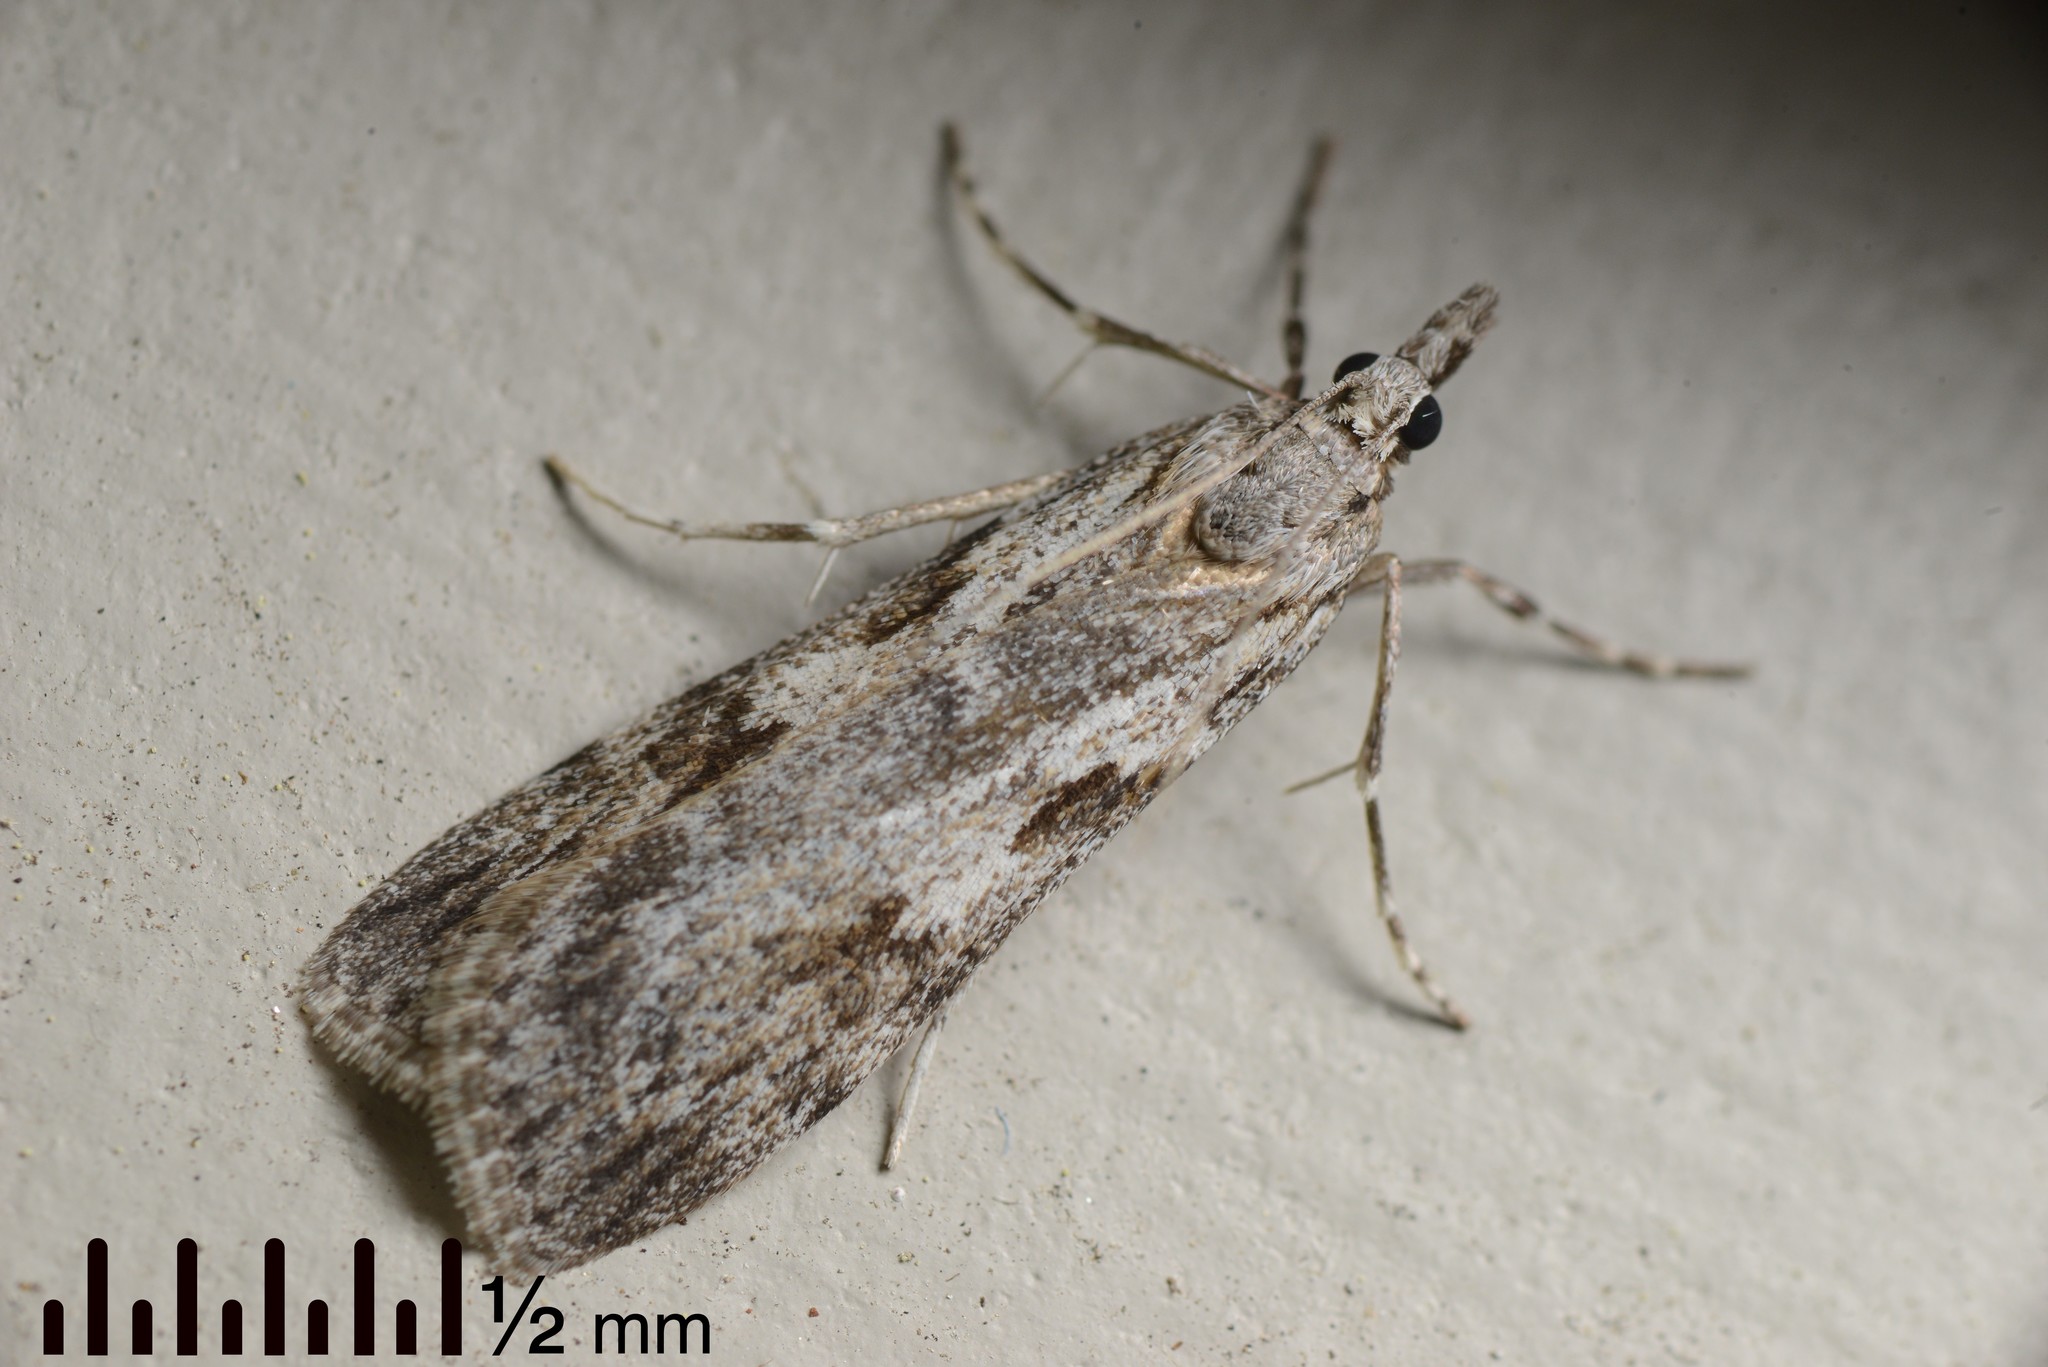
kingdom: Animalia
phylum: Arthropoda
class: Insecta
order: Lepidoptera
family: Crambidae
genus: Scoparia
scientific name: Scoparia halopis
